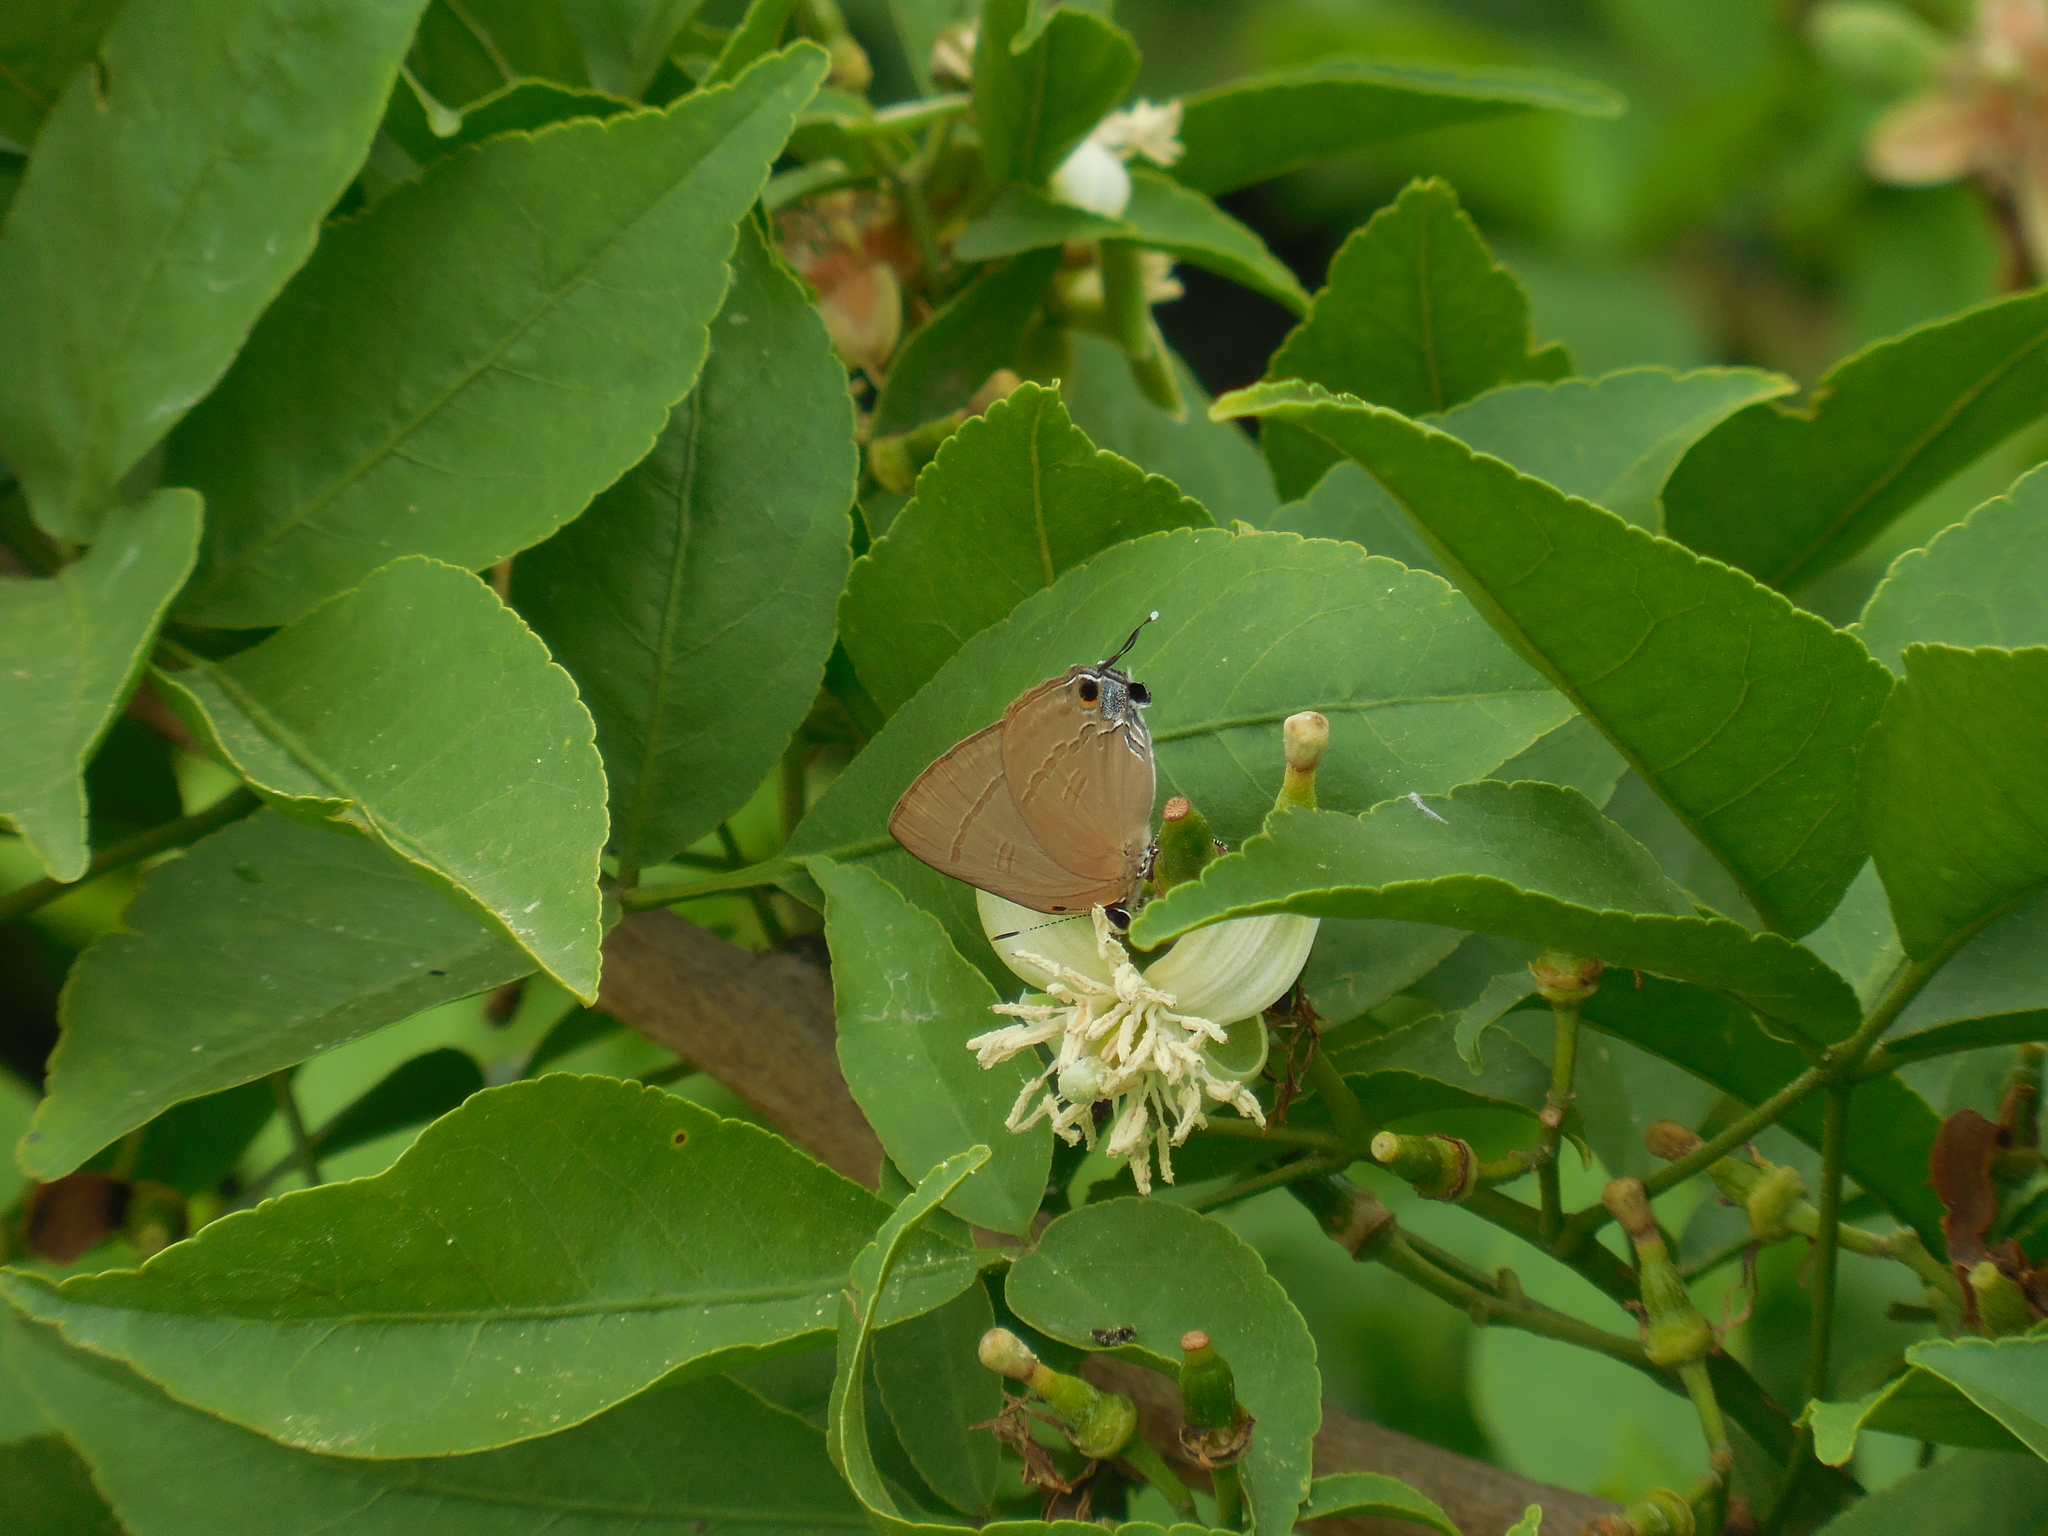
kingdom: Animalia
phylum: Arthropoda
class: Insecta
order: Lepidoptera
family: Lycaenidae
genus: Rapala
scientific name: Rapala manea
